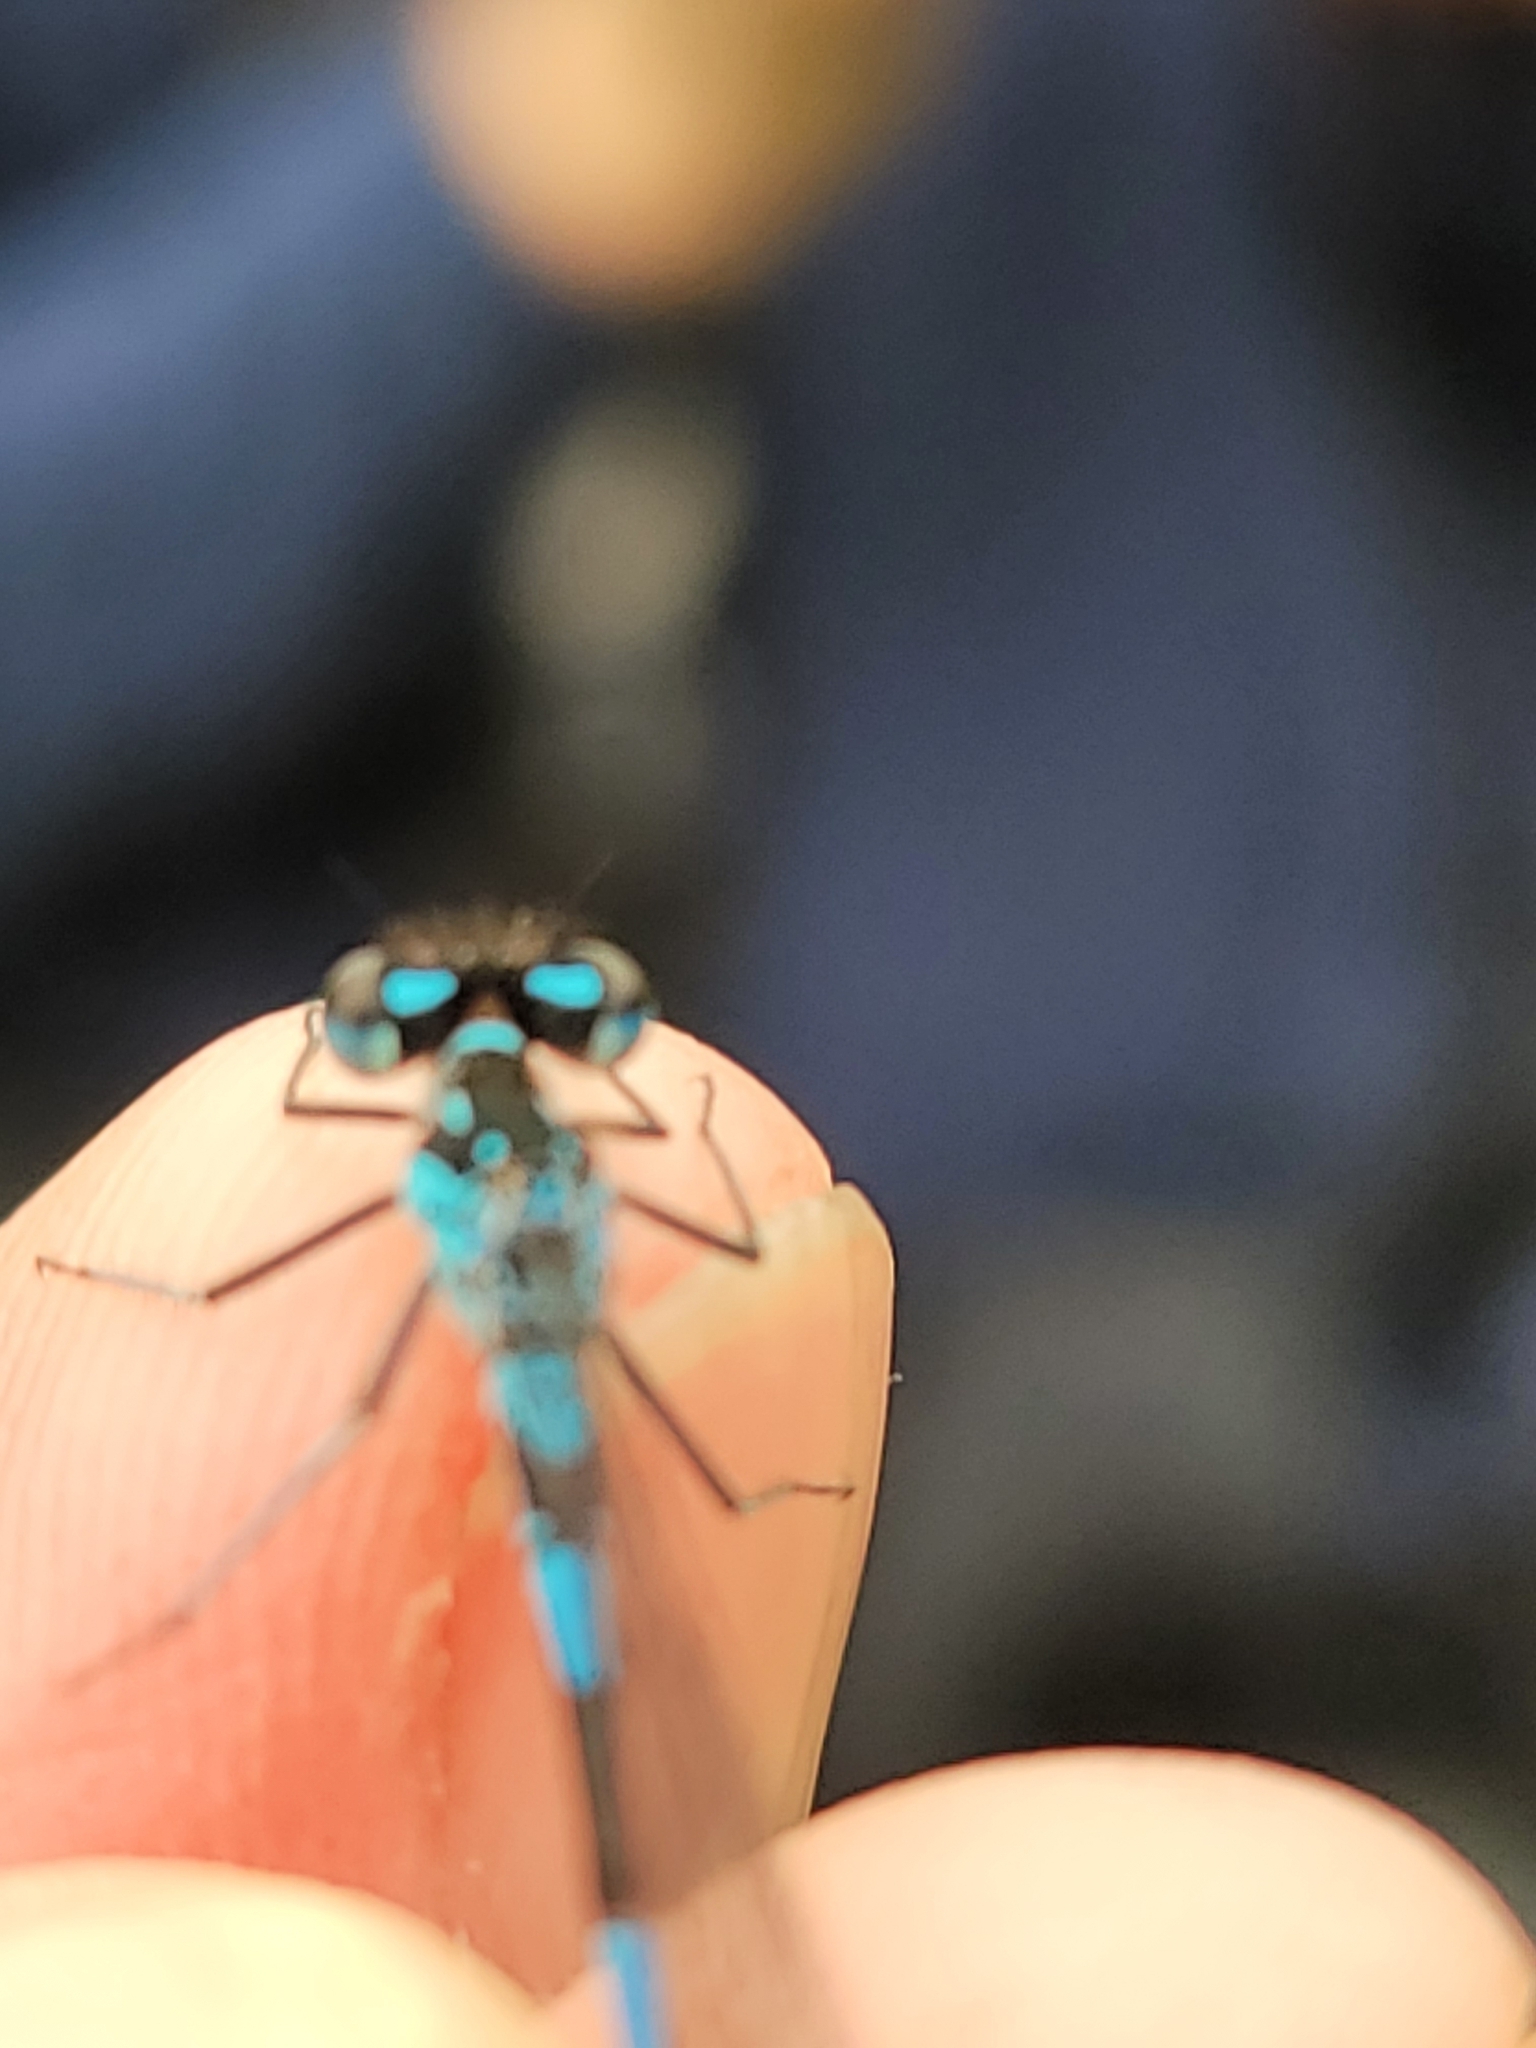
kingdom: Animalia
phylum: Arthropoda
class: Insecta
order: Odonata
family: Coenagrionidae
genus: Coenagrion
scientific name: Coenagrion pulchellum
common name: Variable bluet
